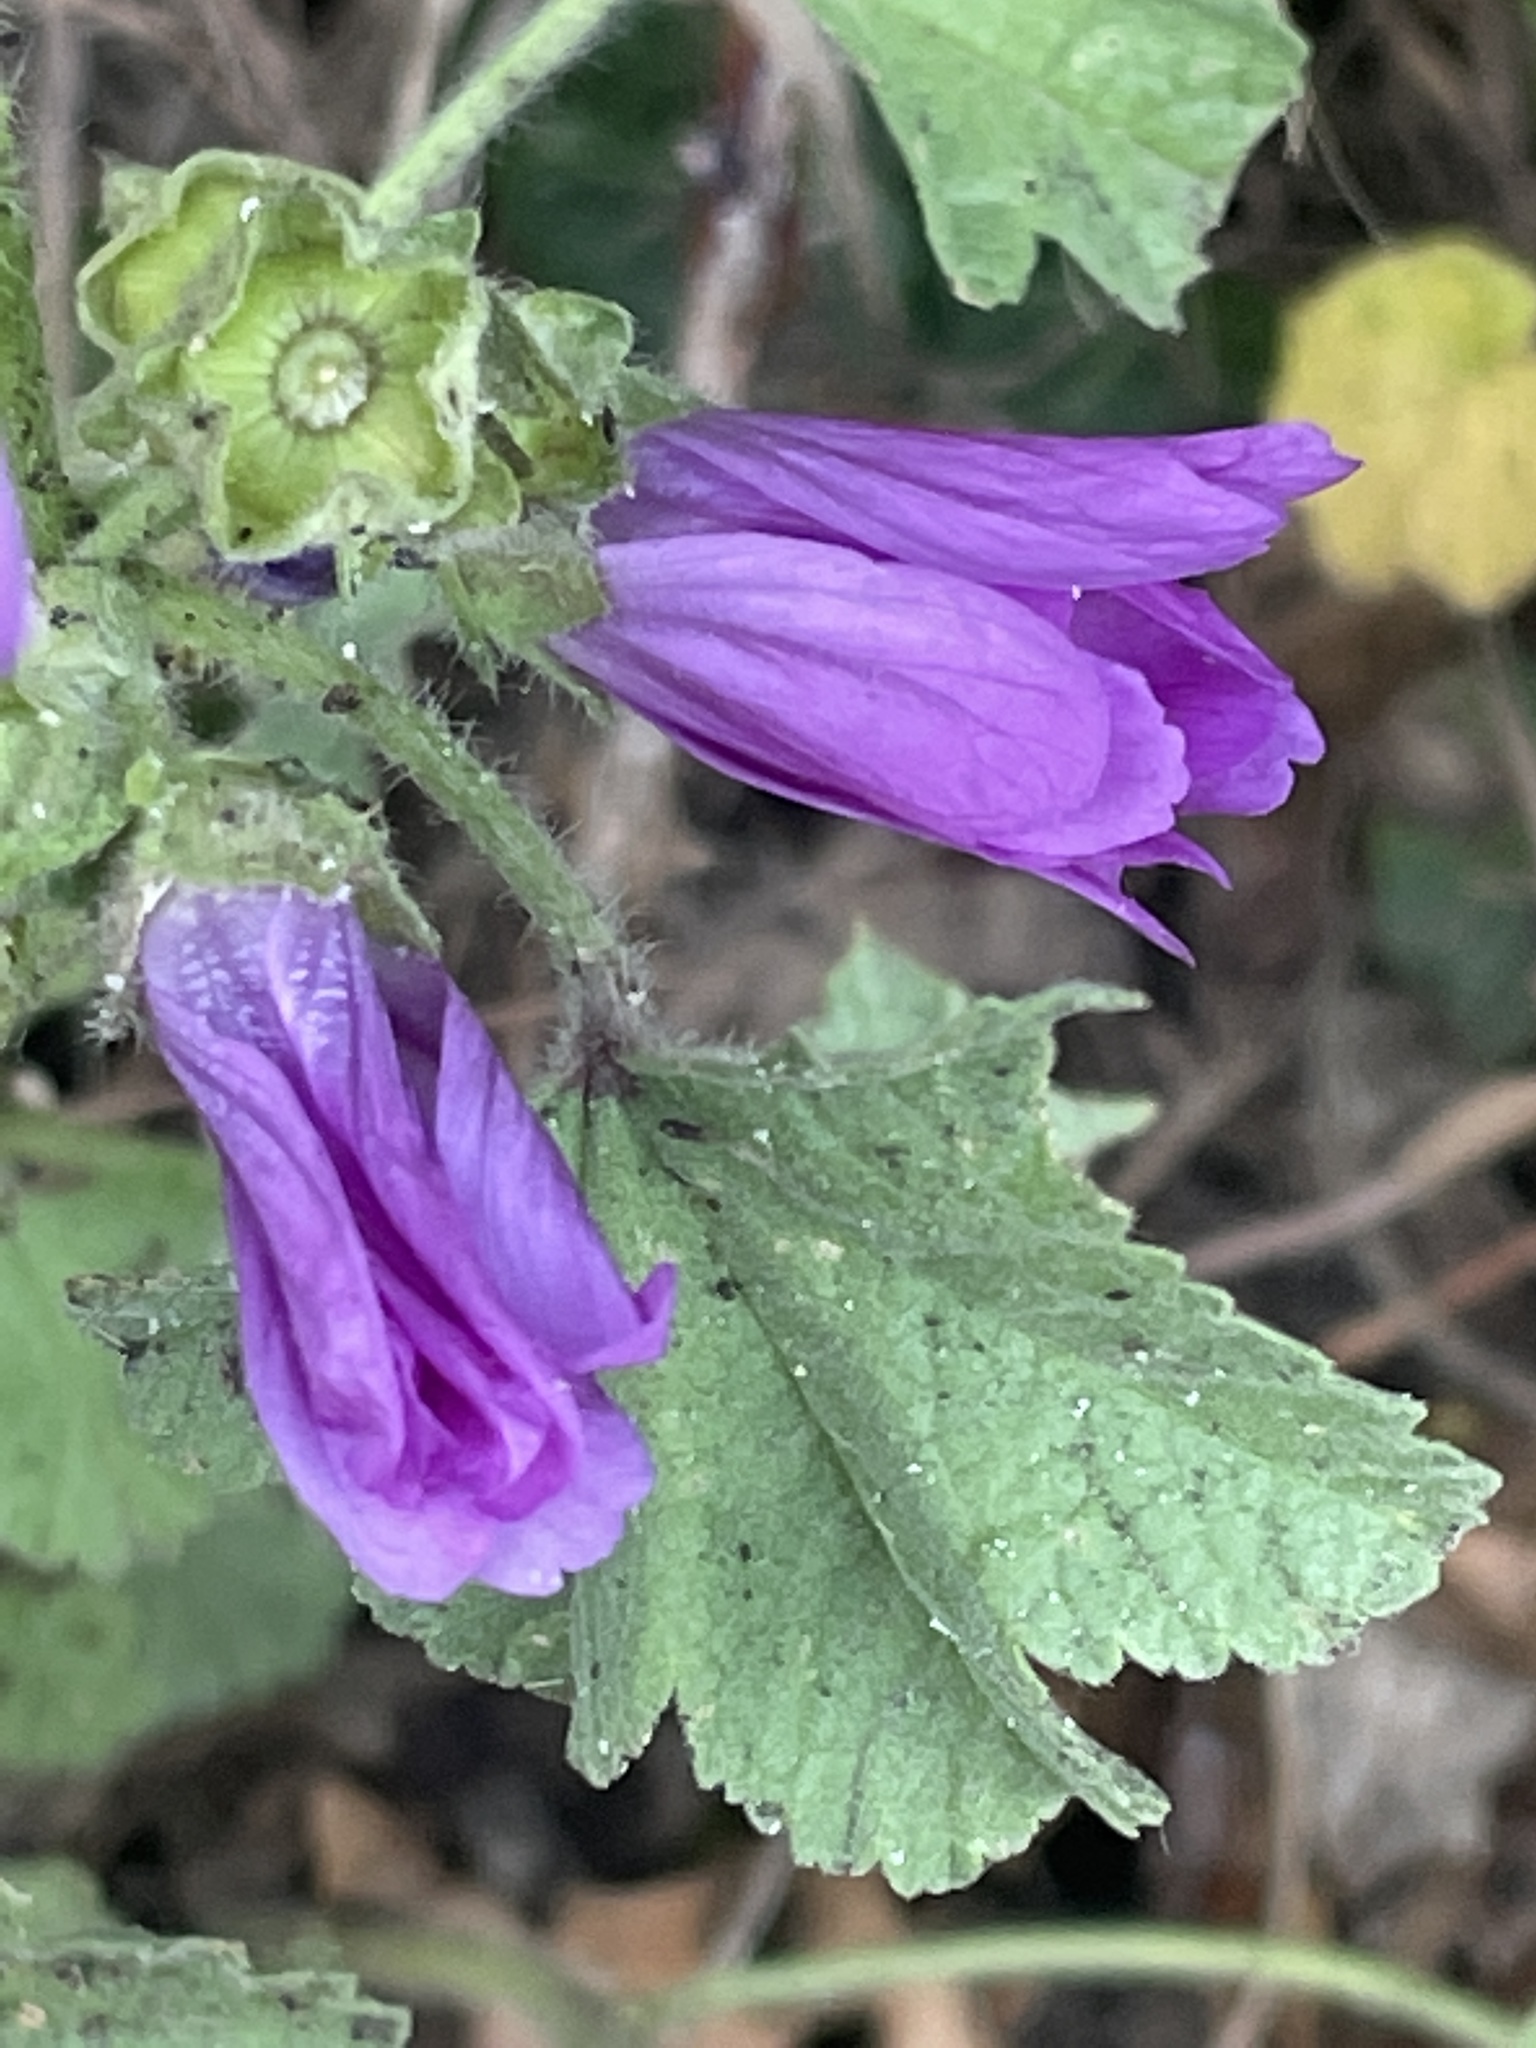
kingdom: Plantae
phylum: Tracheophyta
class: Magnoliopsida
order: Malvales
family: Malvaceae
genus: Malva
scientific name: Malva sylvestris
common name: Common mallow
